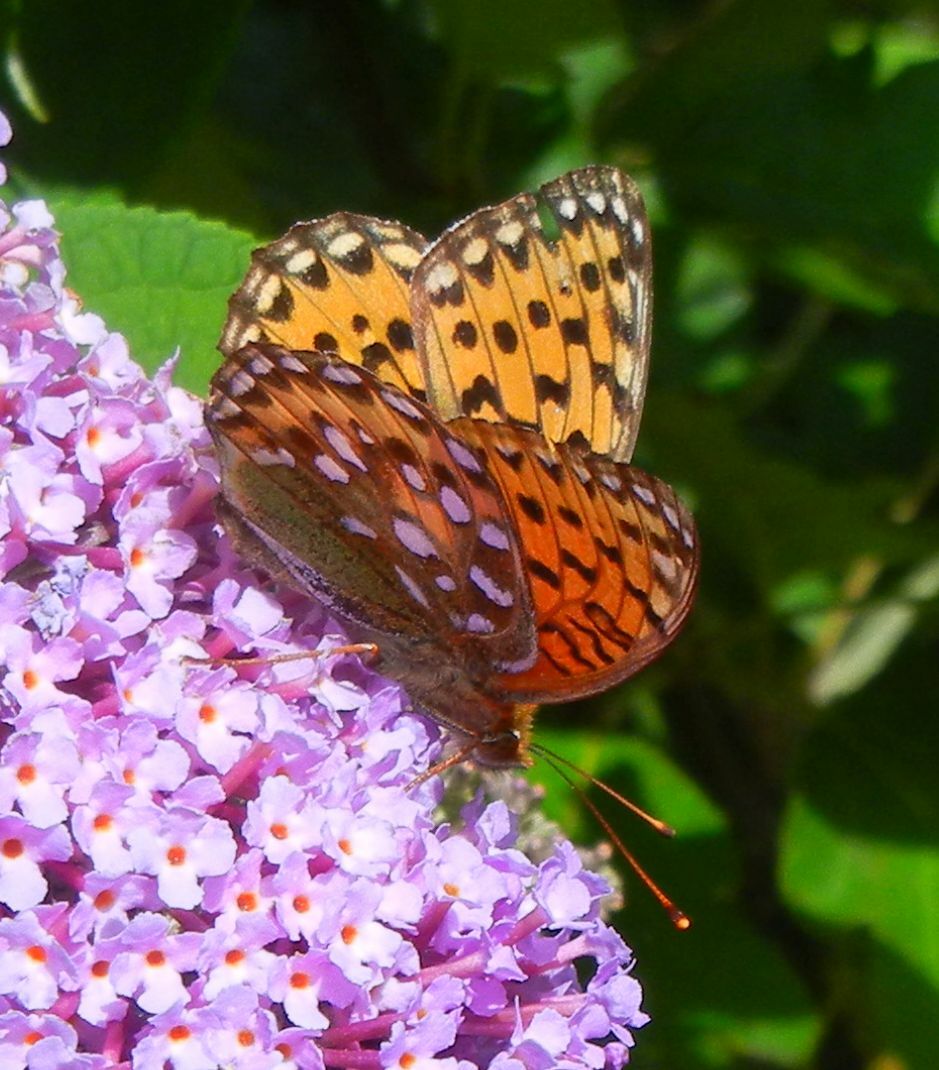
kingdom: Animalia
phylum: Arthropoda
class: Insecta
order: Lepidoptera
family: Nymphalidae
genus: Speyeria
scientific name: Speyeria aglaja
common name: Dark green fritillary
